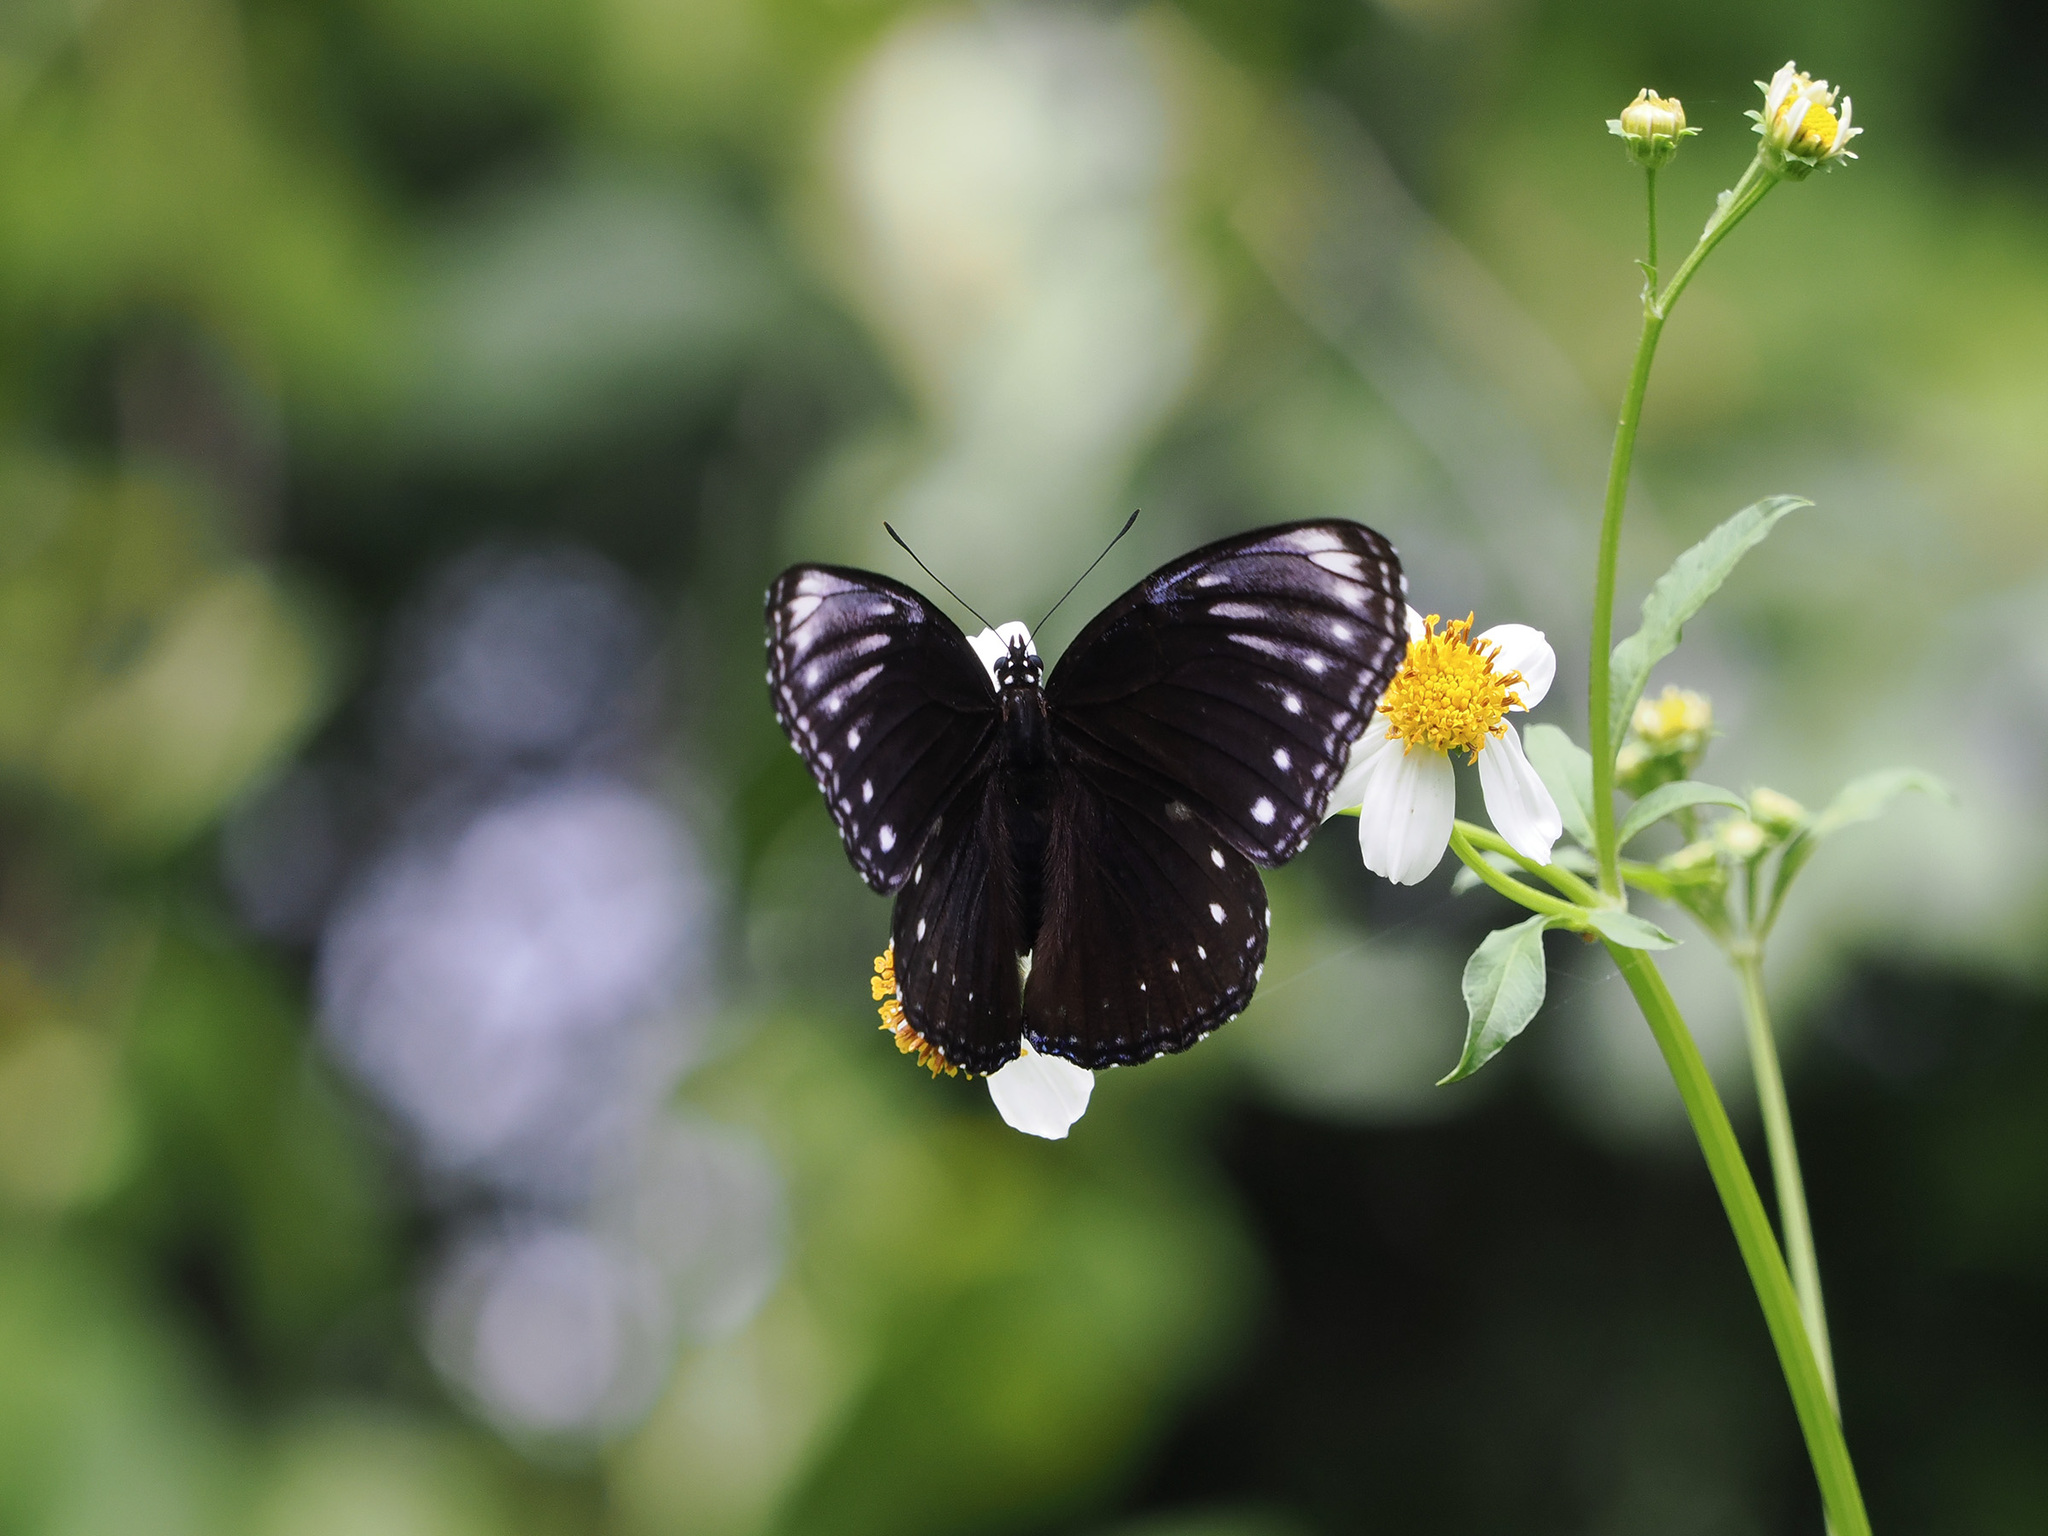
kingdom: Animalia
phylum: Arthropoda
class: Insecta
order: Lepidoptera
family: Nymphalidae
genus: Hypolimnas
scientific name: Hypolimnas anomala
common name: Malayan eggfly
